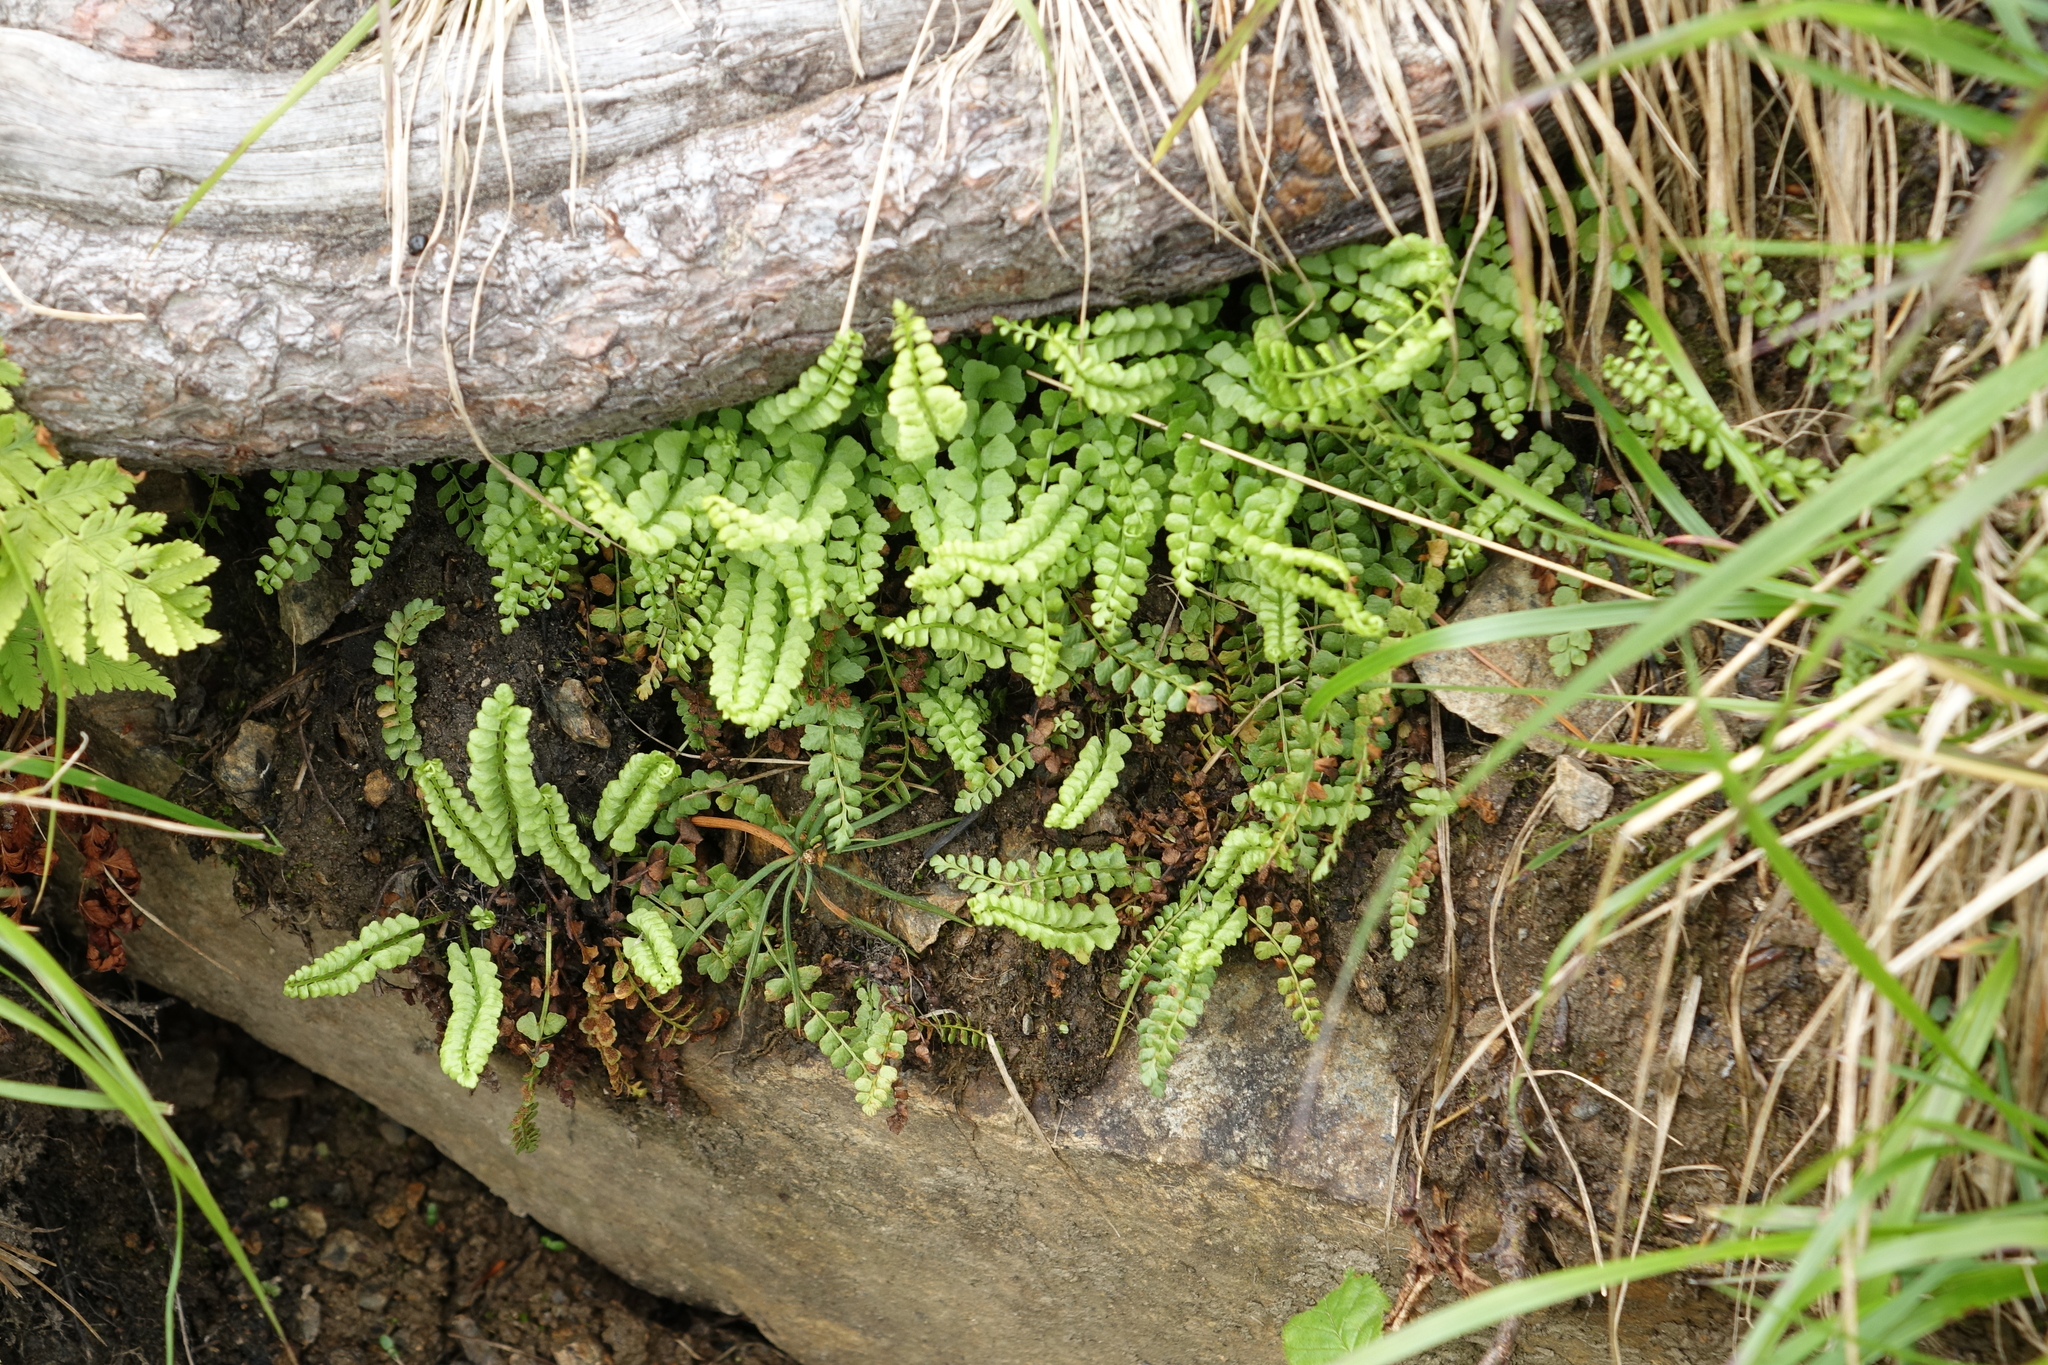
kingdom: Plantae
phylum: Tracheophyta
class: Polypodiopsida
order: Polypodiales
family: Aspleniaceae
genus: Asplenium
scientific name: Asplenium viride
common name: Green spleenwort
